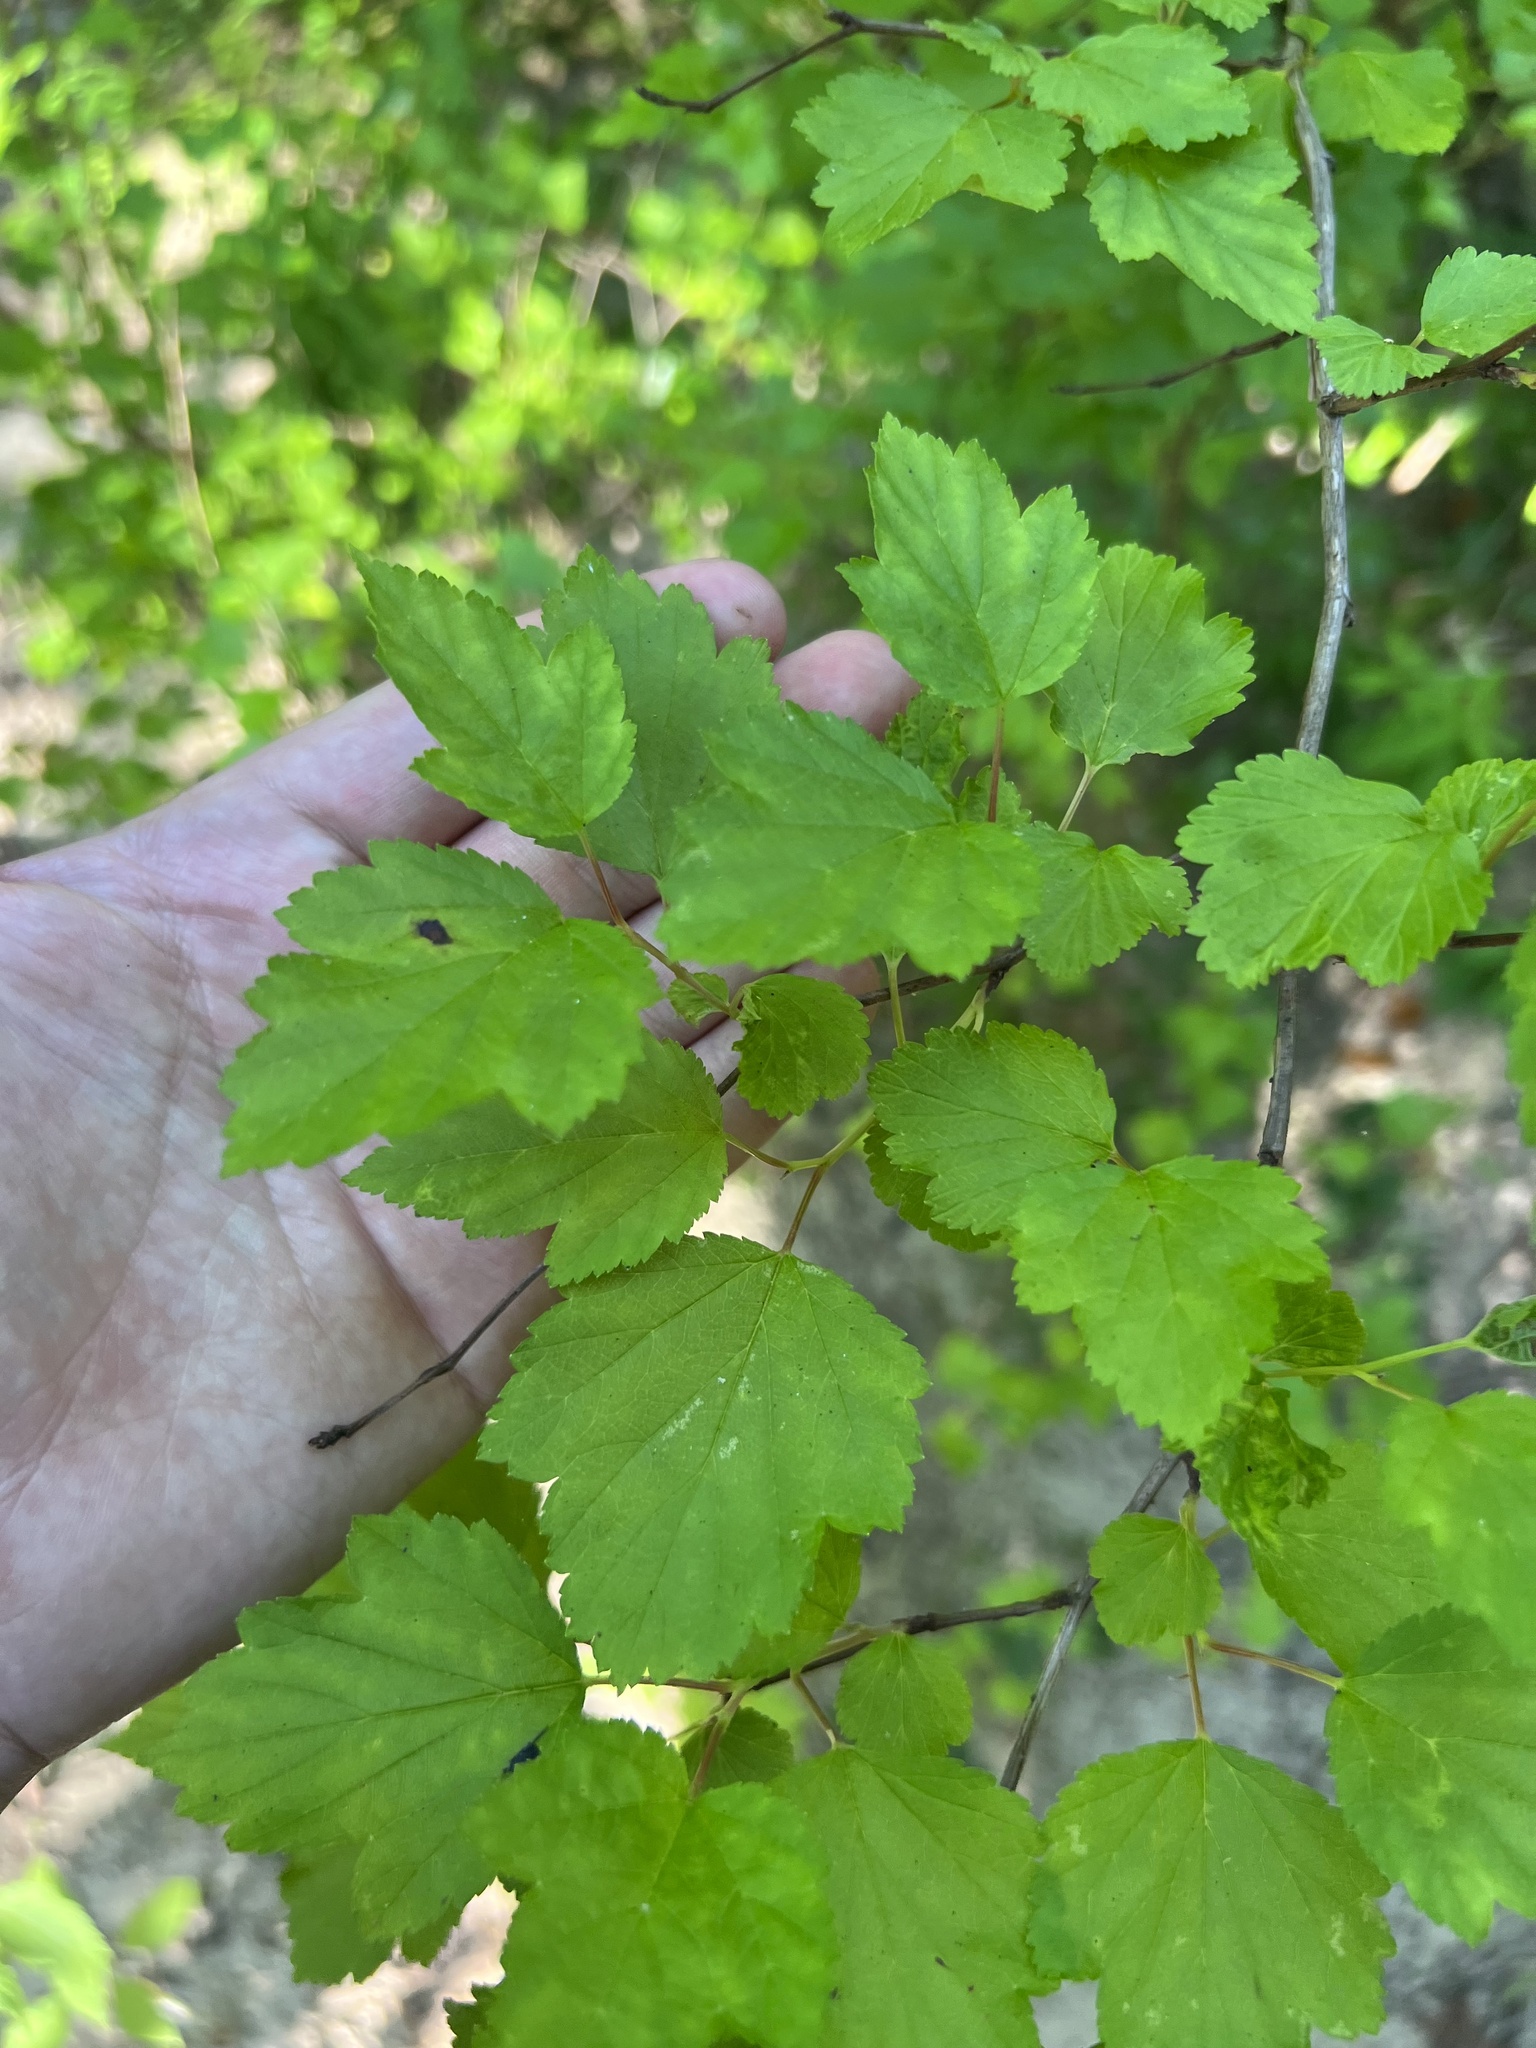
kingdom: Plantae
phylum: Tracheophyta
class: Magnoliopsida
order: Rosales
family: Rosaceae
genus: Physocarpus
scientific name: Physocarpus opulifolius
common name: Ninebark
